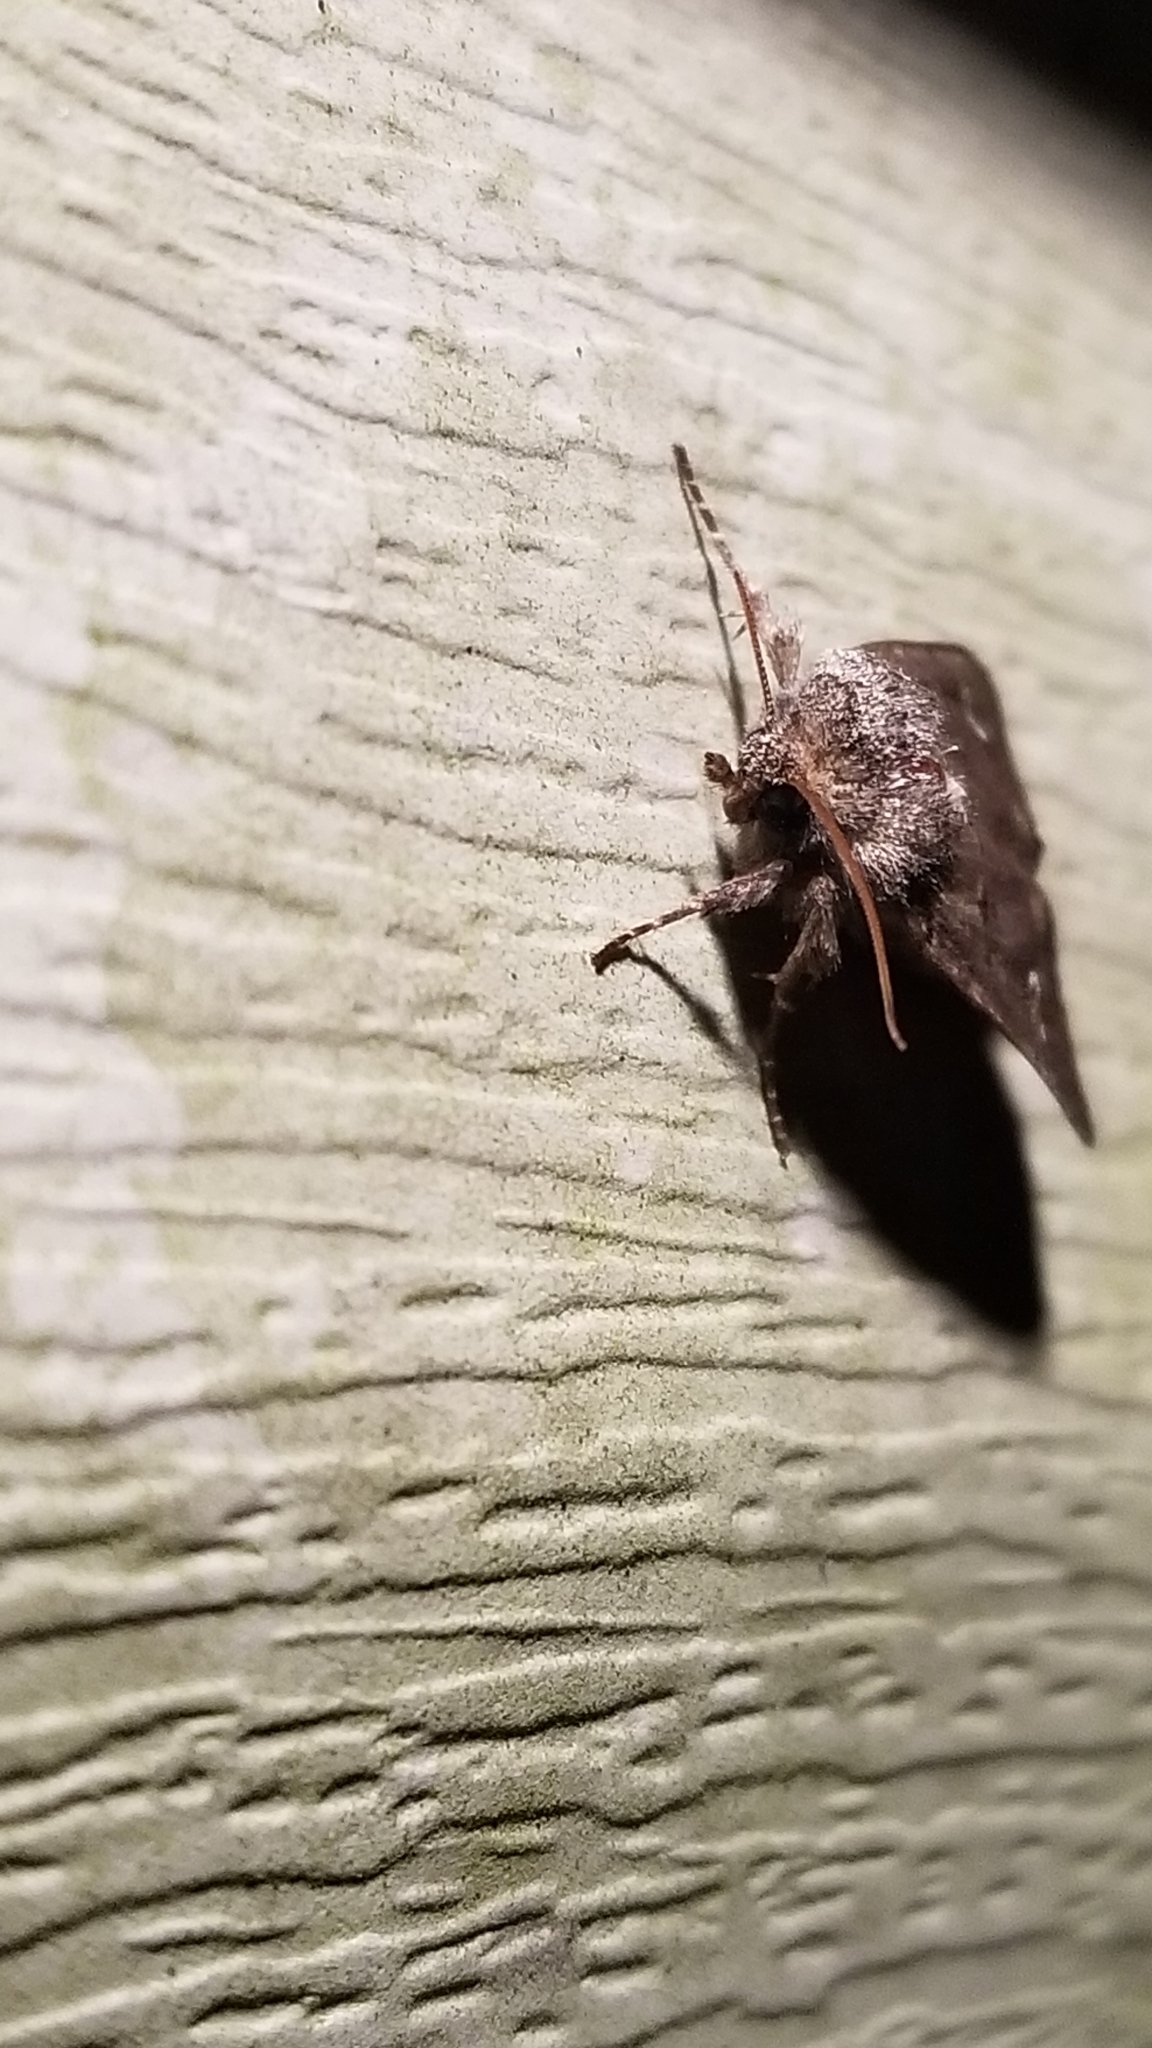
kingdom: Animalia
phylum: Arthropoda
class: Insecta
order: Lepidoptera
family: Noctuidae
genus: Lacinipolia
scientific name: Lacinipolia renigera
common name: Kidney-spotted minor
